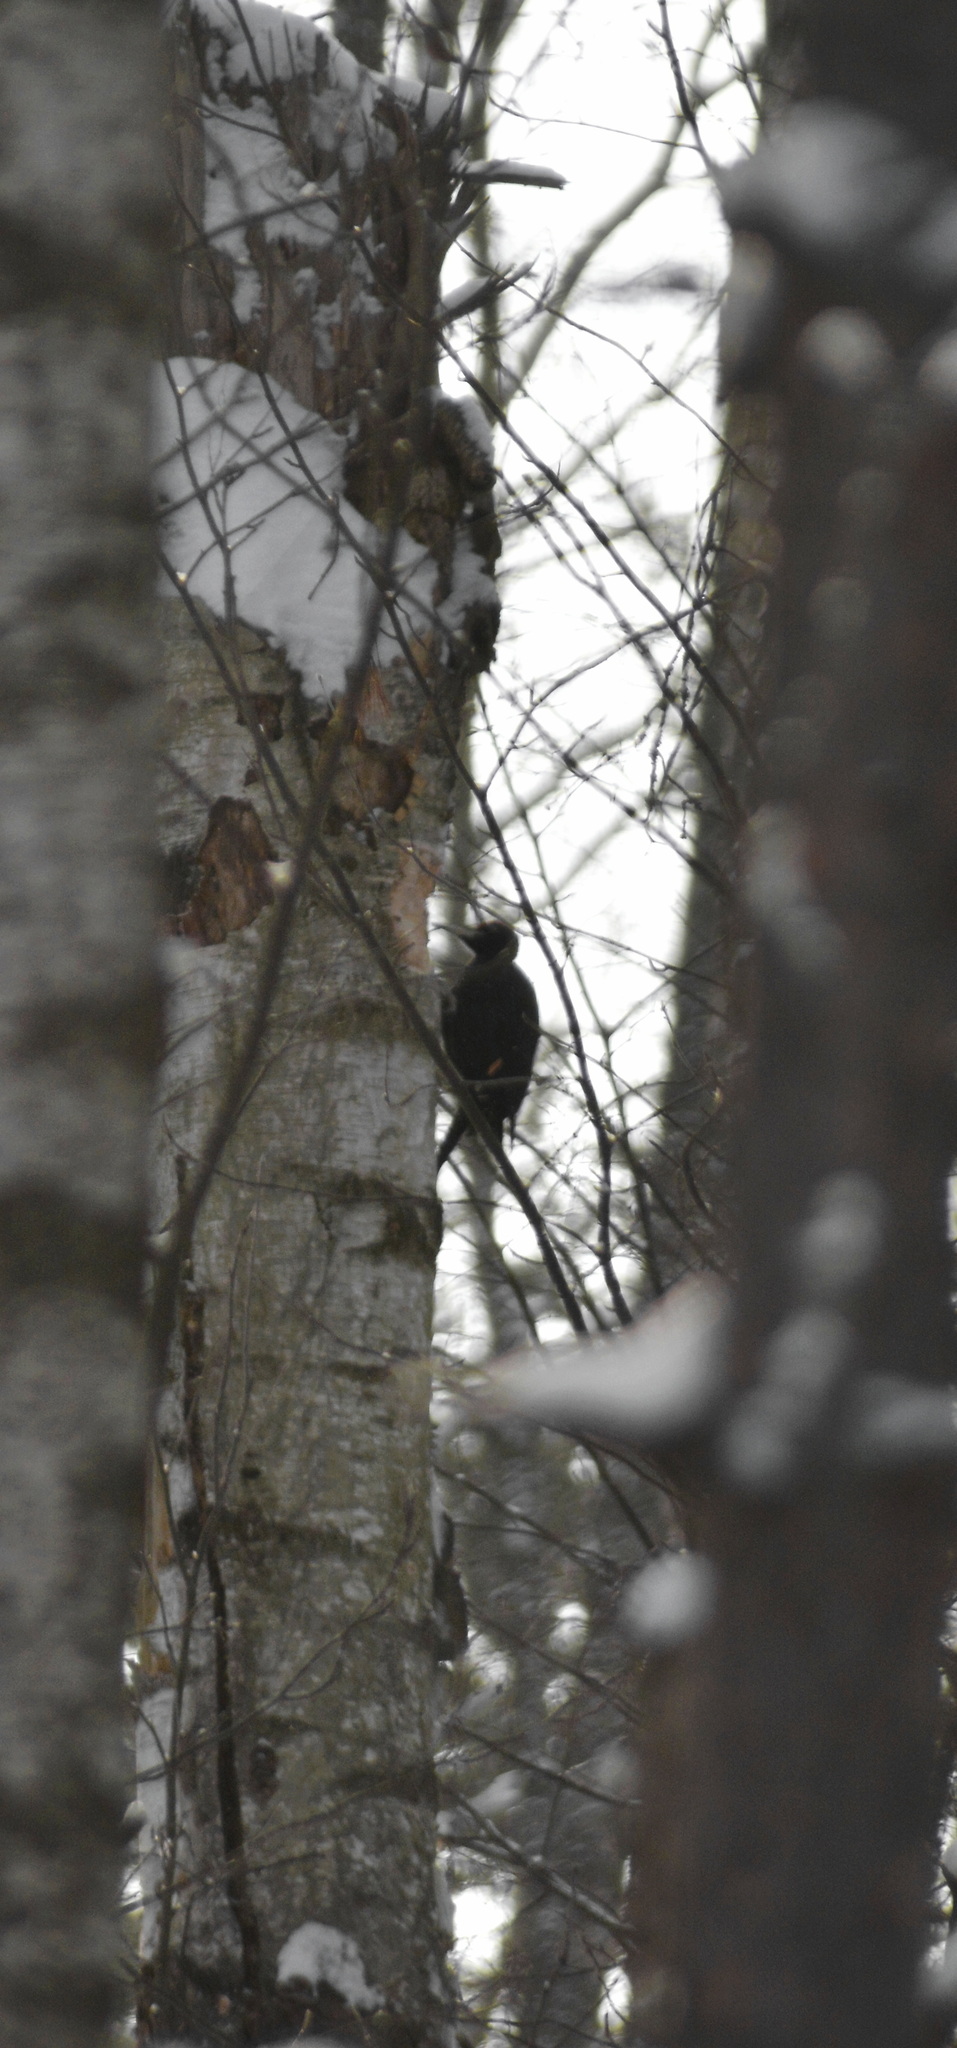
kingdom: Animalia
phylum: Chordata
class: Aves
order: Piciformes
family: Picidae
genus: Dryocopus
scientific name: Dryocopus martius
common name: Black woodpecker
